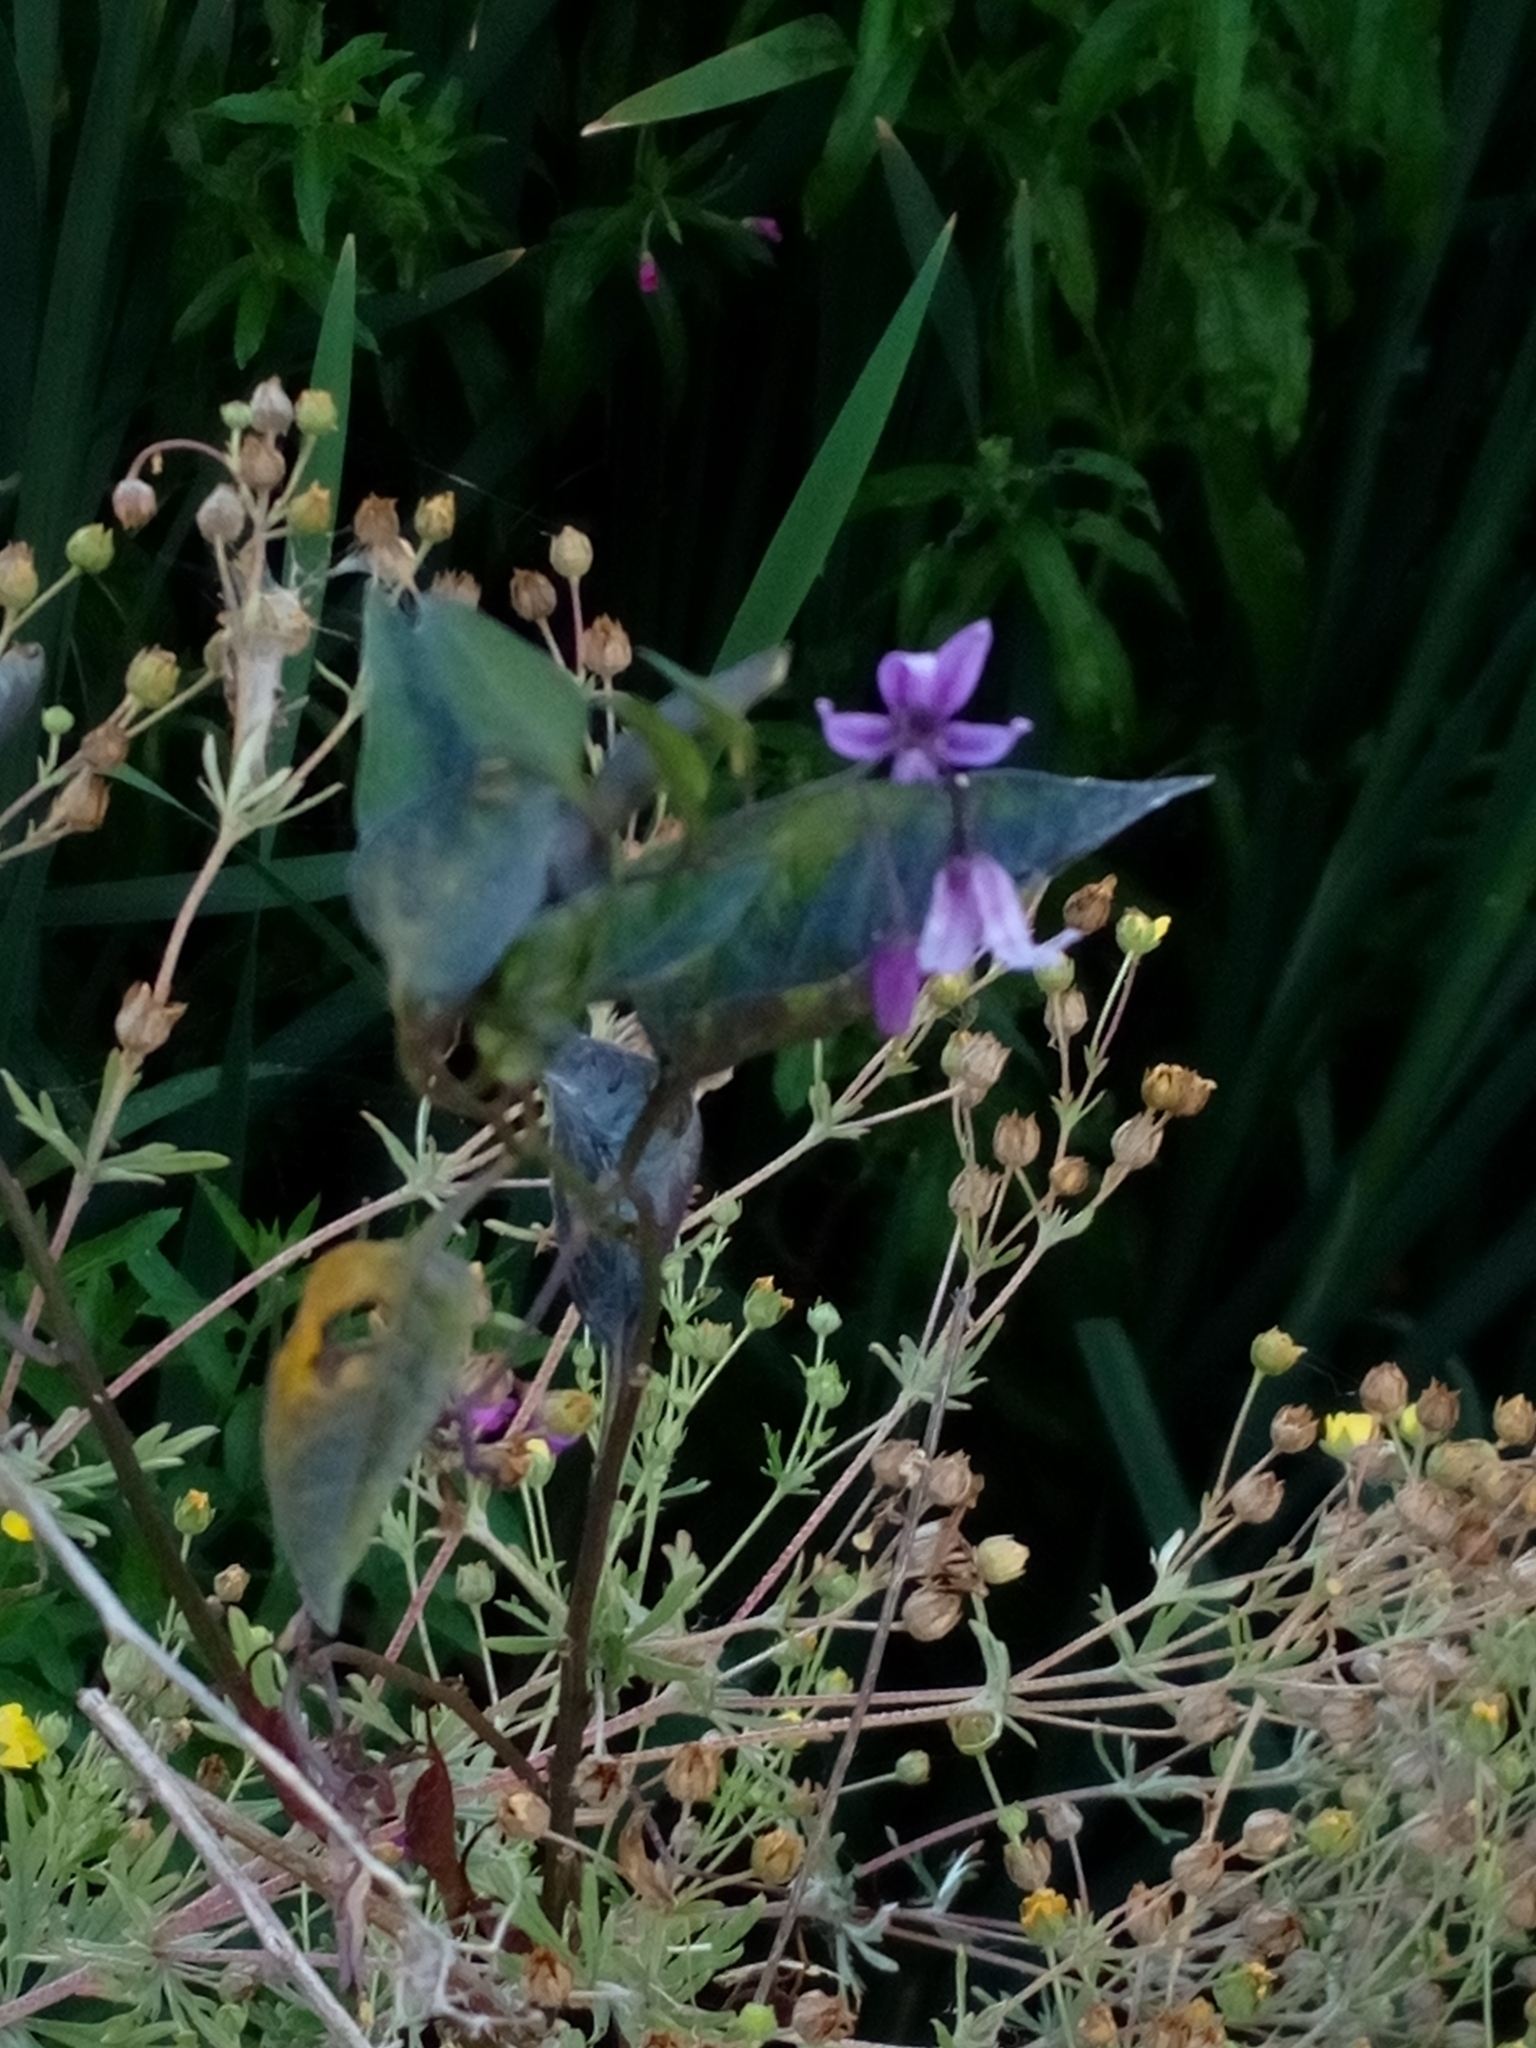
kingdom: Plantae
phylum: Tracheophyta
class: Magnoliopsida
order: Solanales
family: Solanaceae
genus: Solanum
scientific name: Solanum dulcamara
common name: Climbing nightshade
